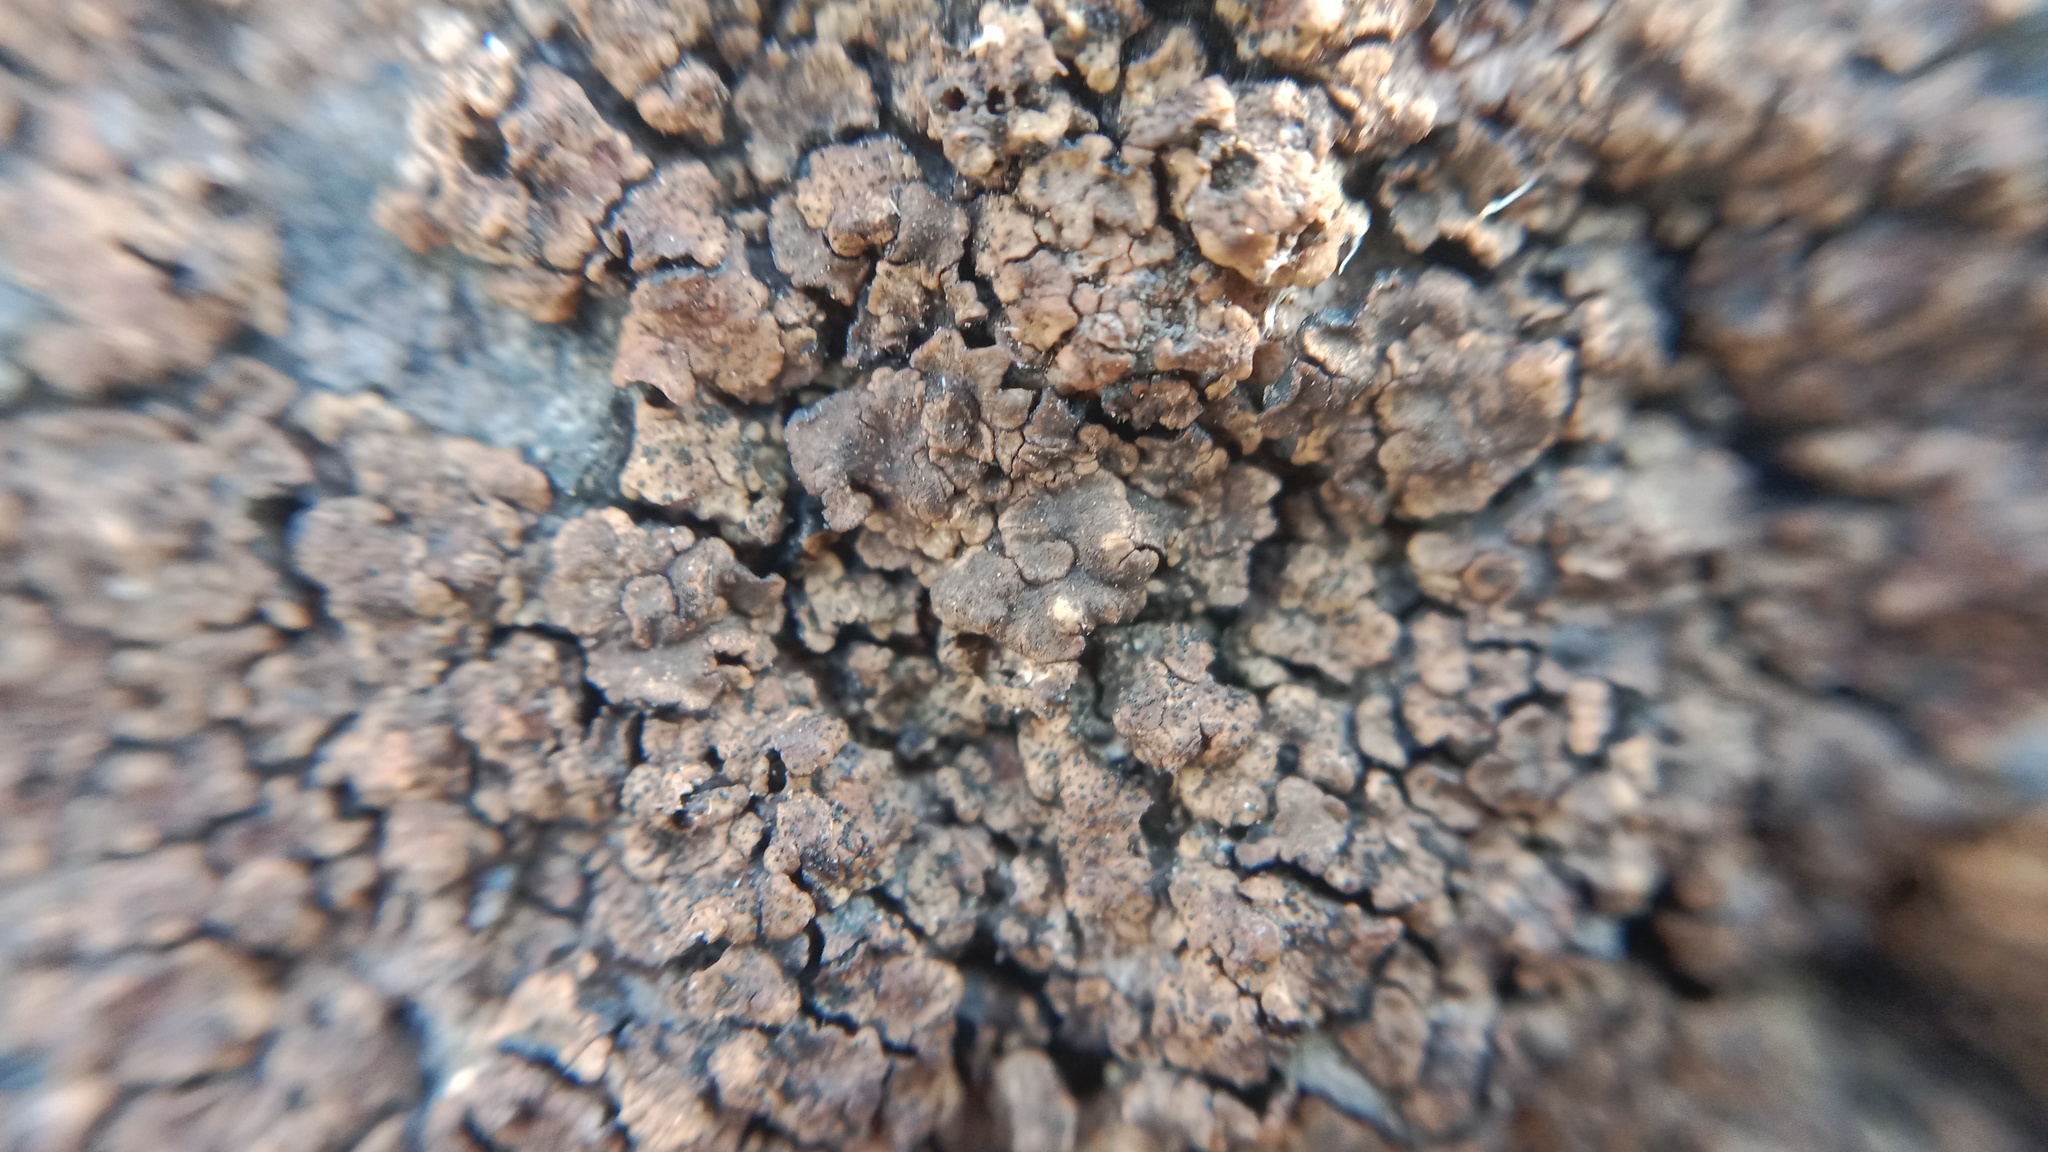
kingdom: Fungi
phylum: Ascomycota
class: Lecanoromycetes
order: Acarosporales
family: Acarosporaceae
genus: Acarospora
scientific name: Acarospora fuscata
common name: Brown cobblestone lichen
